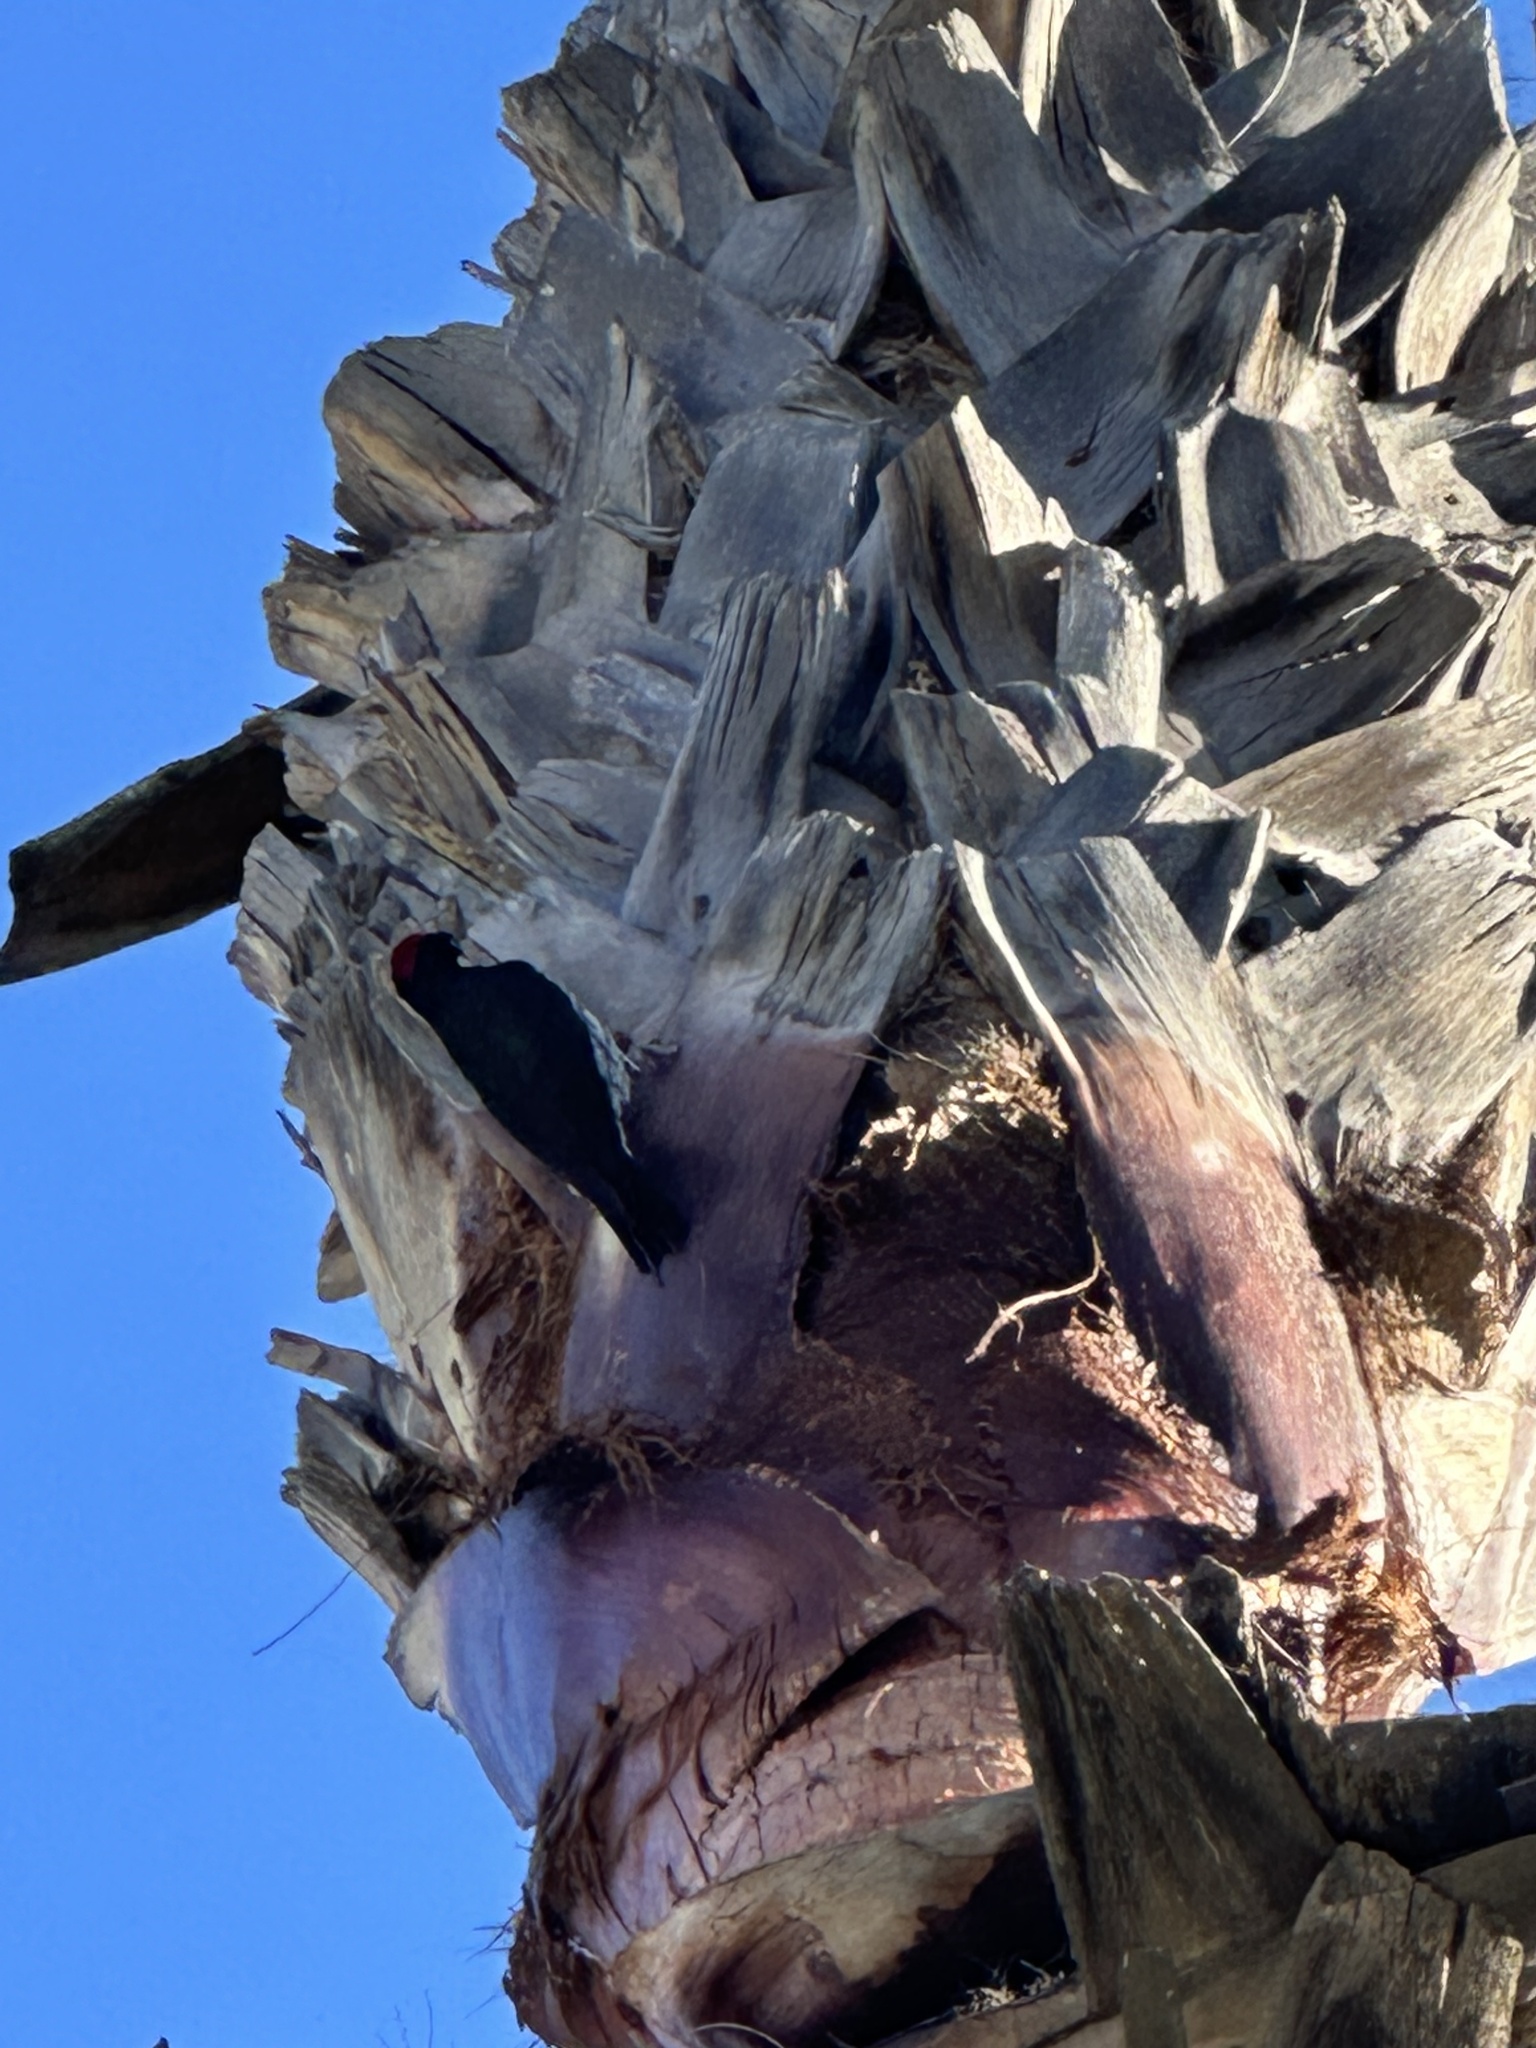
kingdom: Animalia
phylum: Chordata
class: Aves
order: Piciformes
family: Picidae
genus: Melanerpes
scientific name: Melanerpes formicivorus
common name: Acorn woodpecker
